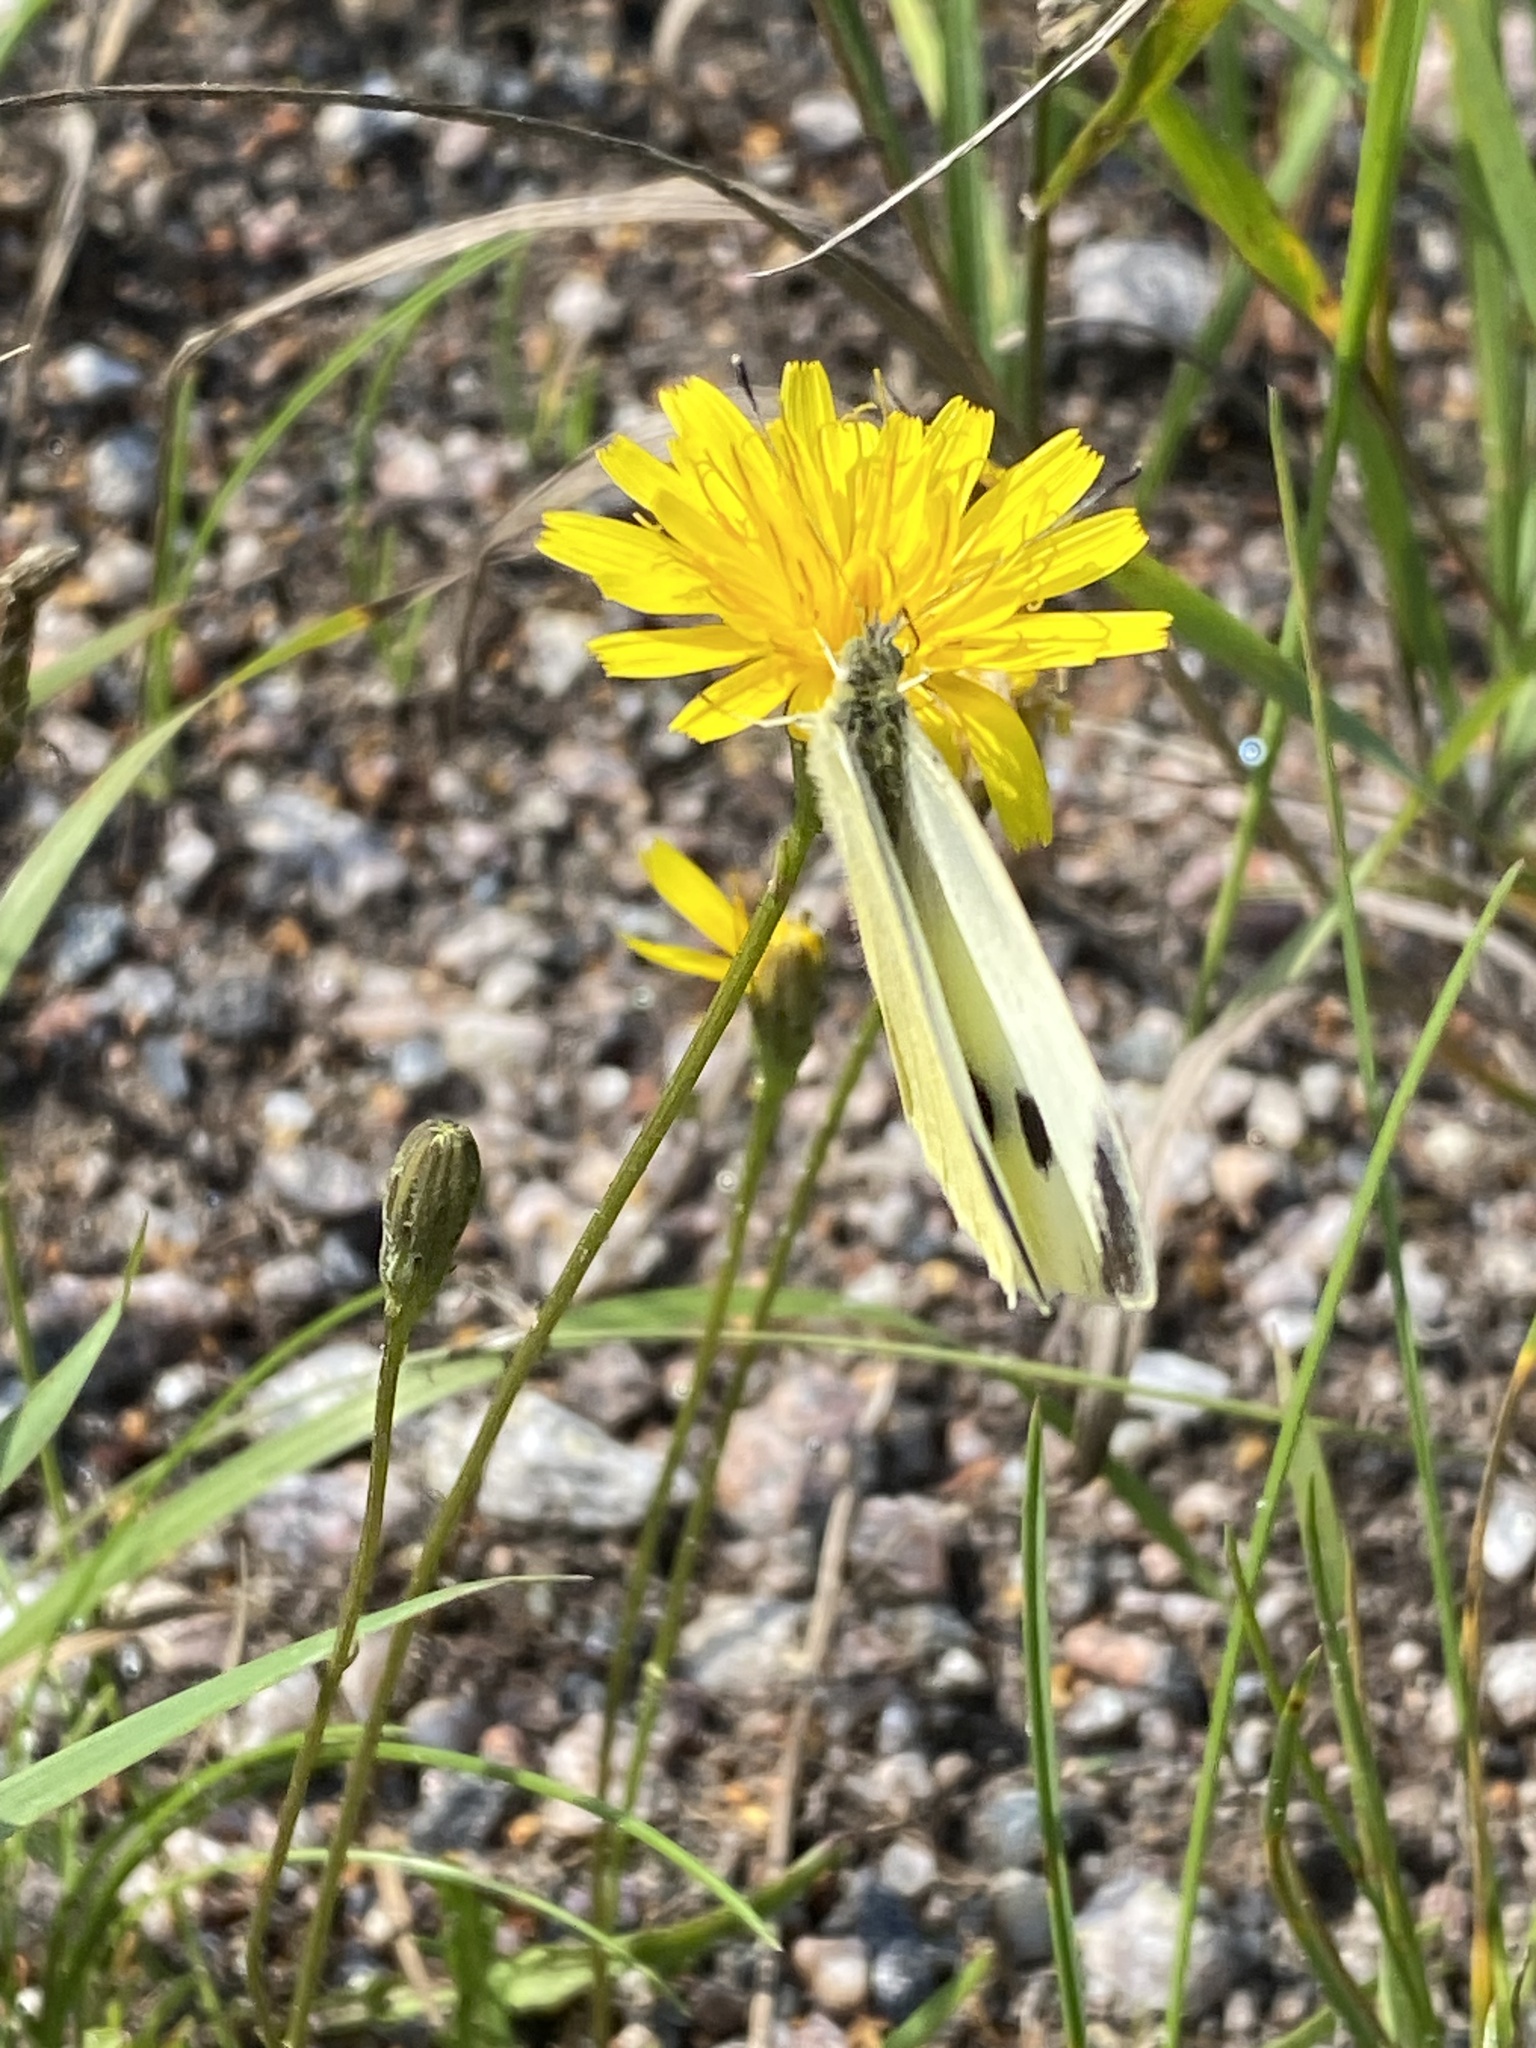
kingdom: Animalia
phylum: Arthropoda
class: Insecta
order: Lepidoptera
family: Pieridae
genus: Pieris
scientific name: Pieris rapae
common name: Small white
